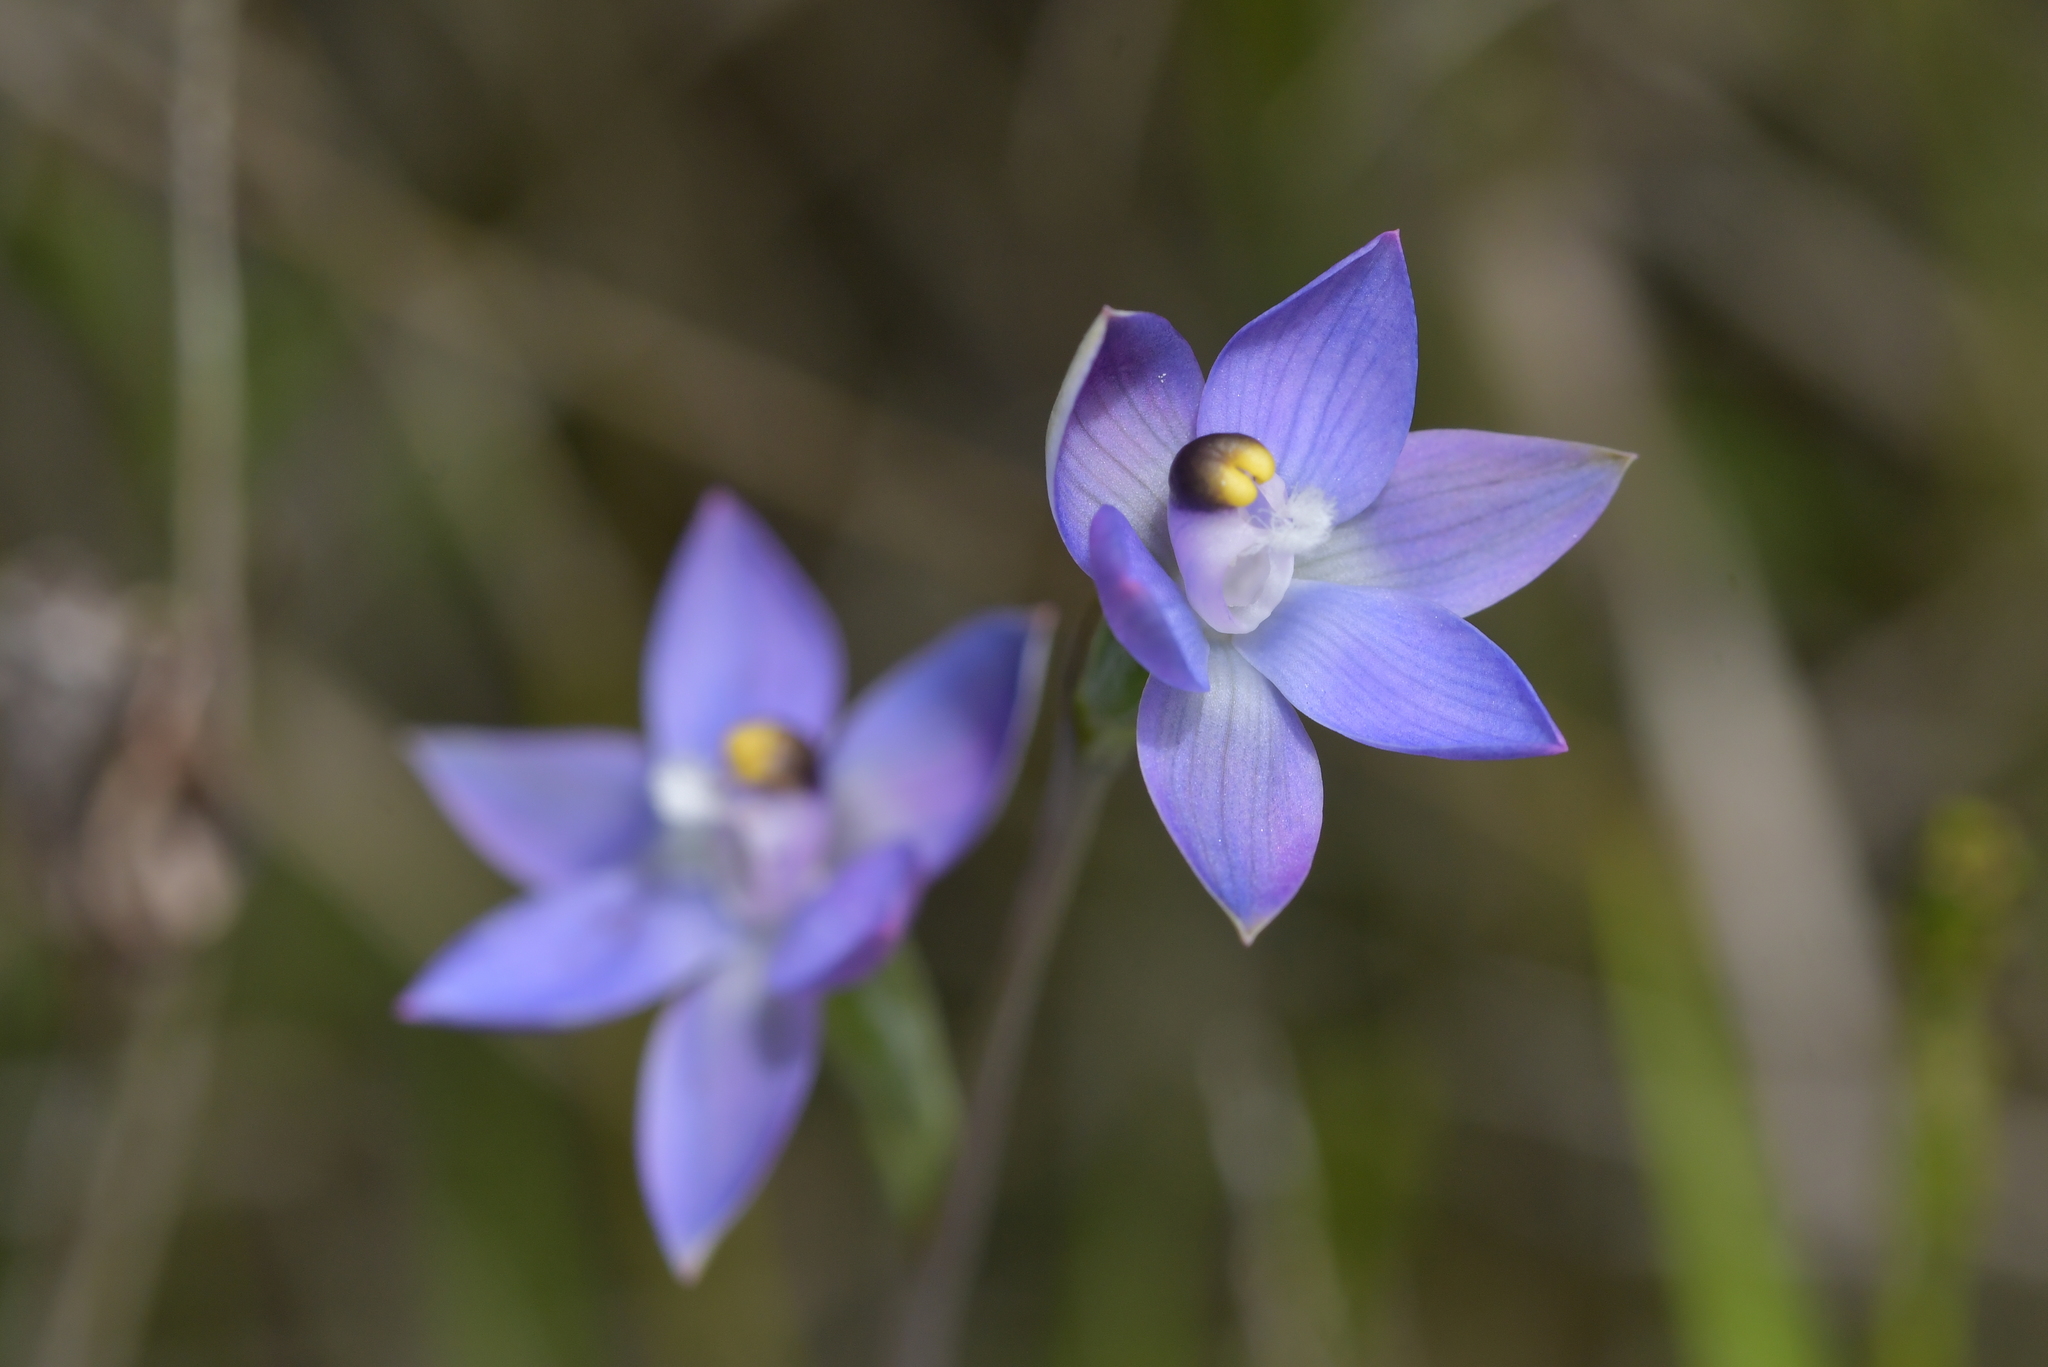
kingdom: Plantae
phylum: Tracheophyta
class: Liliopsida
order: Asparagales
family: Orchidaceae
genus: Thelymitra
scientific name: Thelymitra pauciflora
